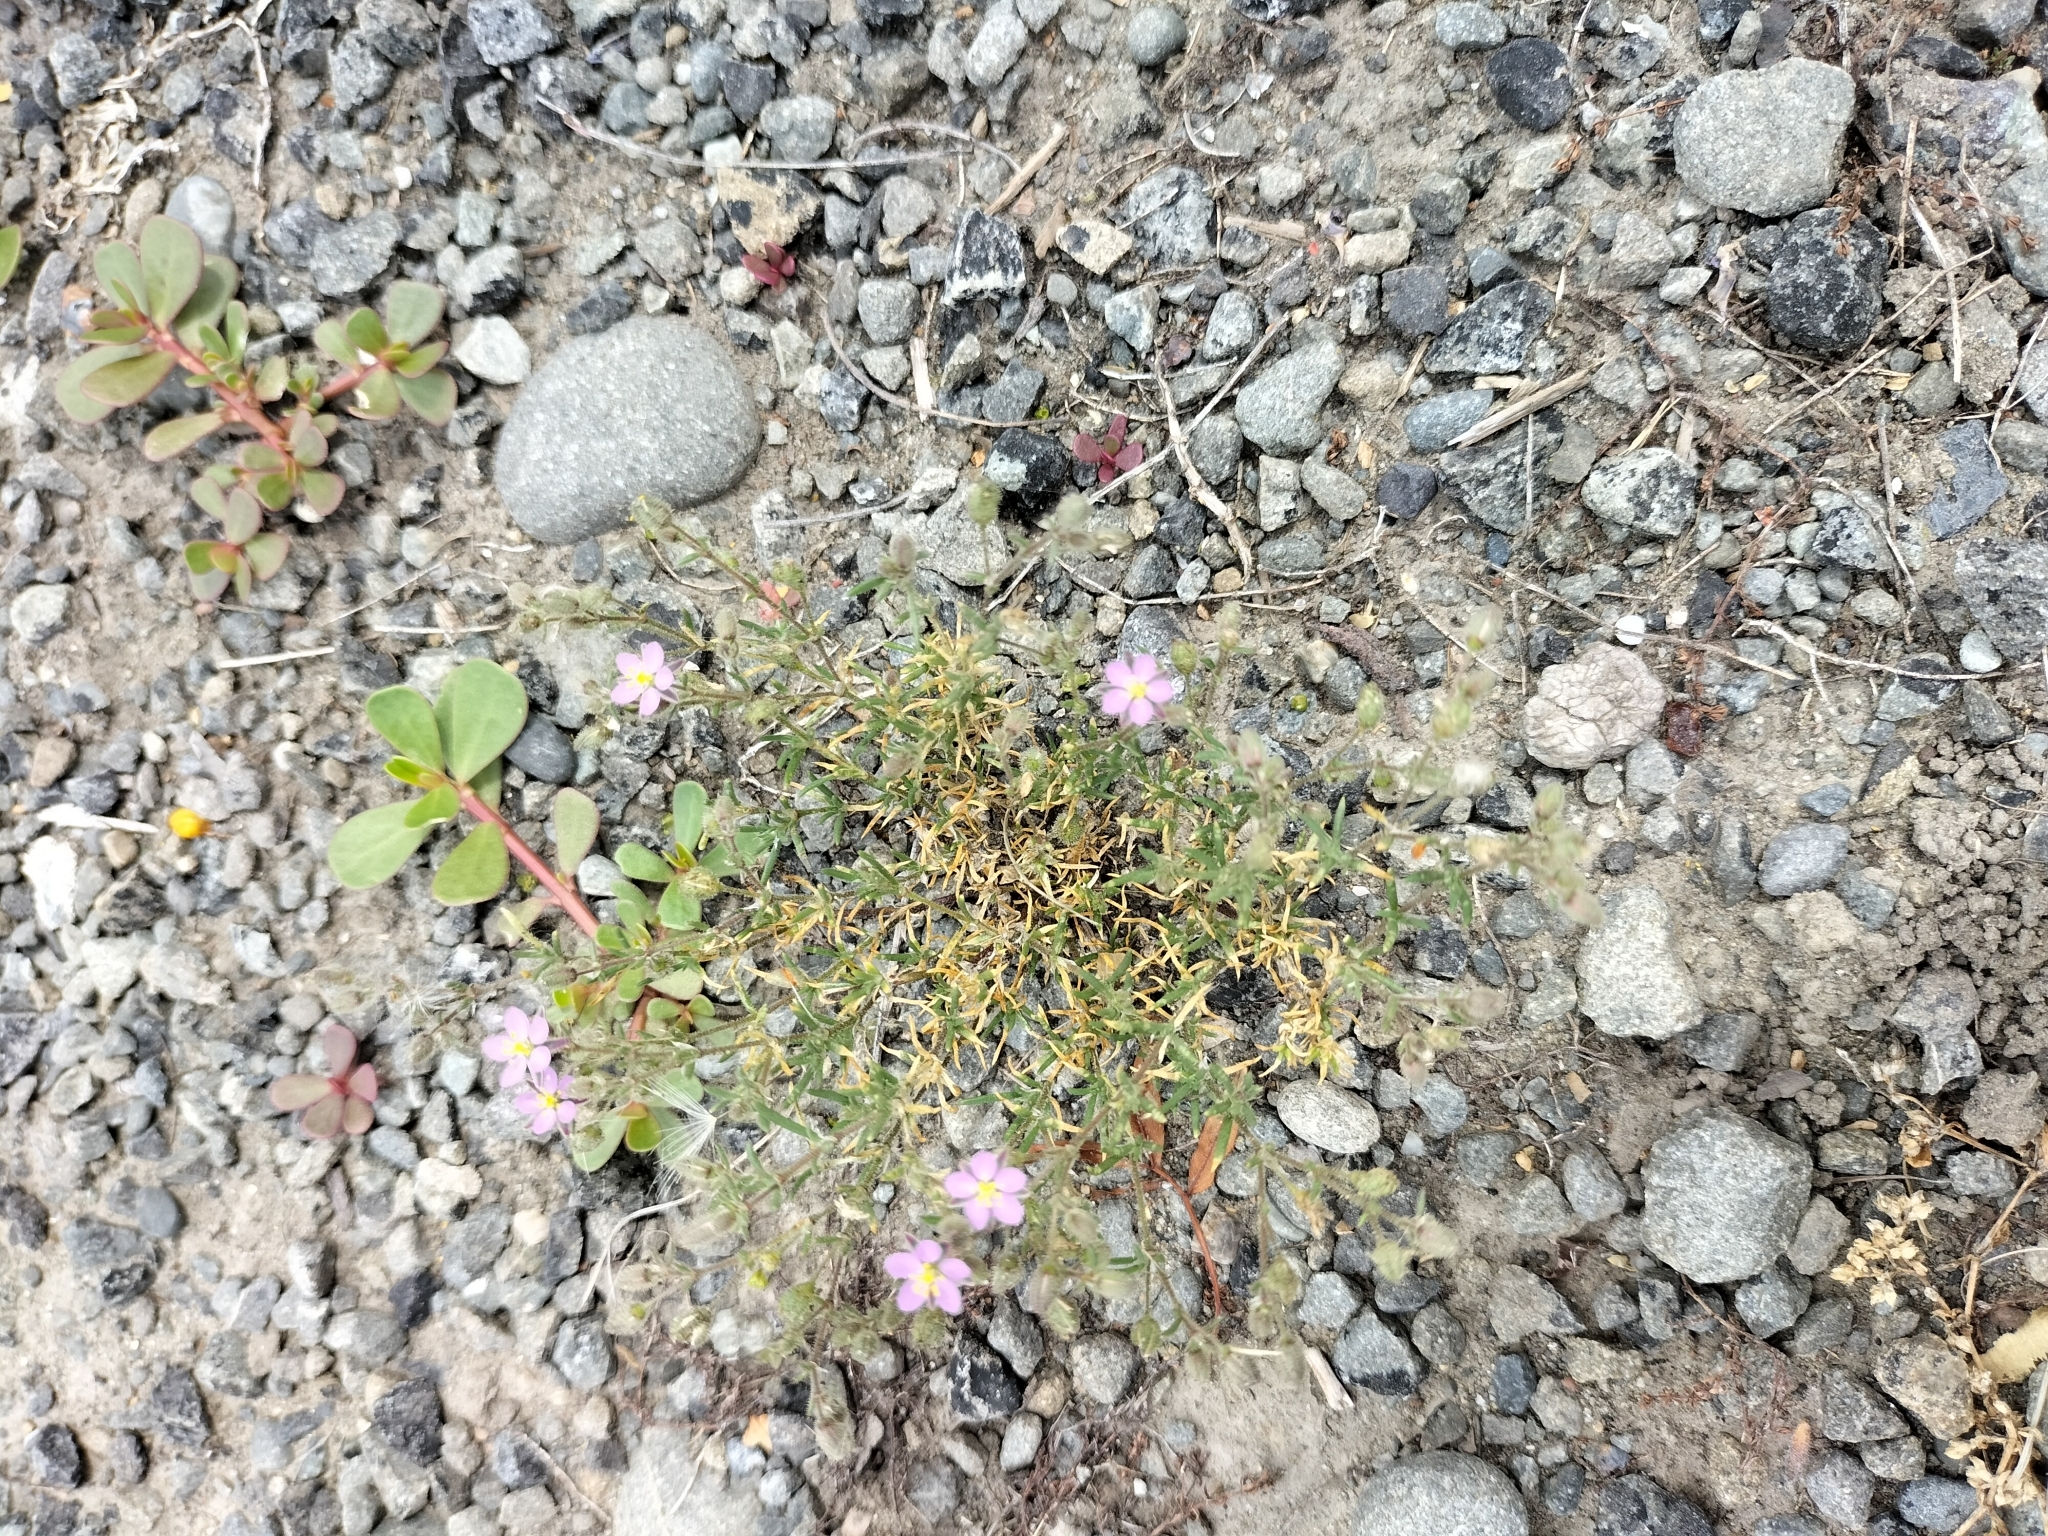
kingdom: Plantae
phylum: Tracheophyta
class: Magnoliopsida
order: Caryophyllales
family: Caryophyllaceae
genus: Spergularia
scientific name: Spergularia rubra
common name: Red sand-spurrey
